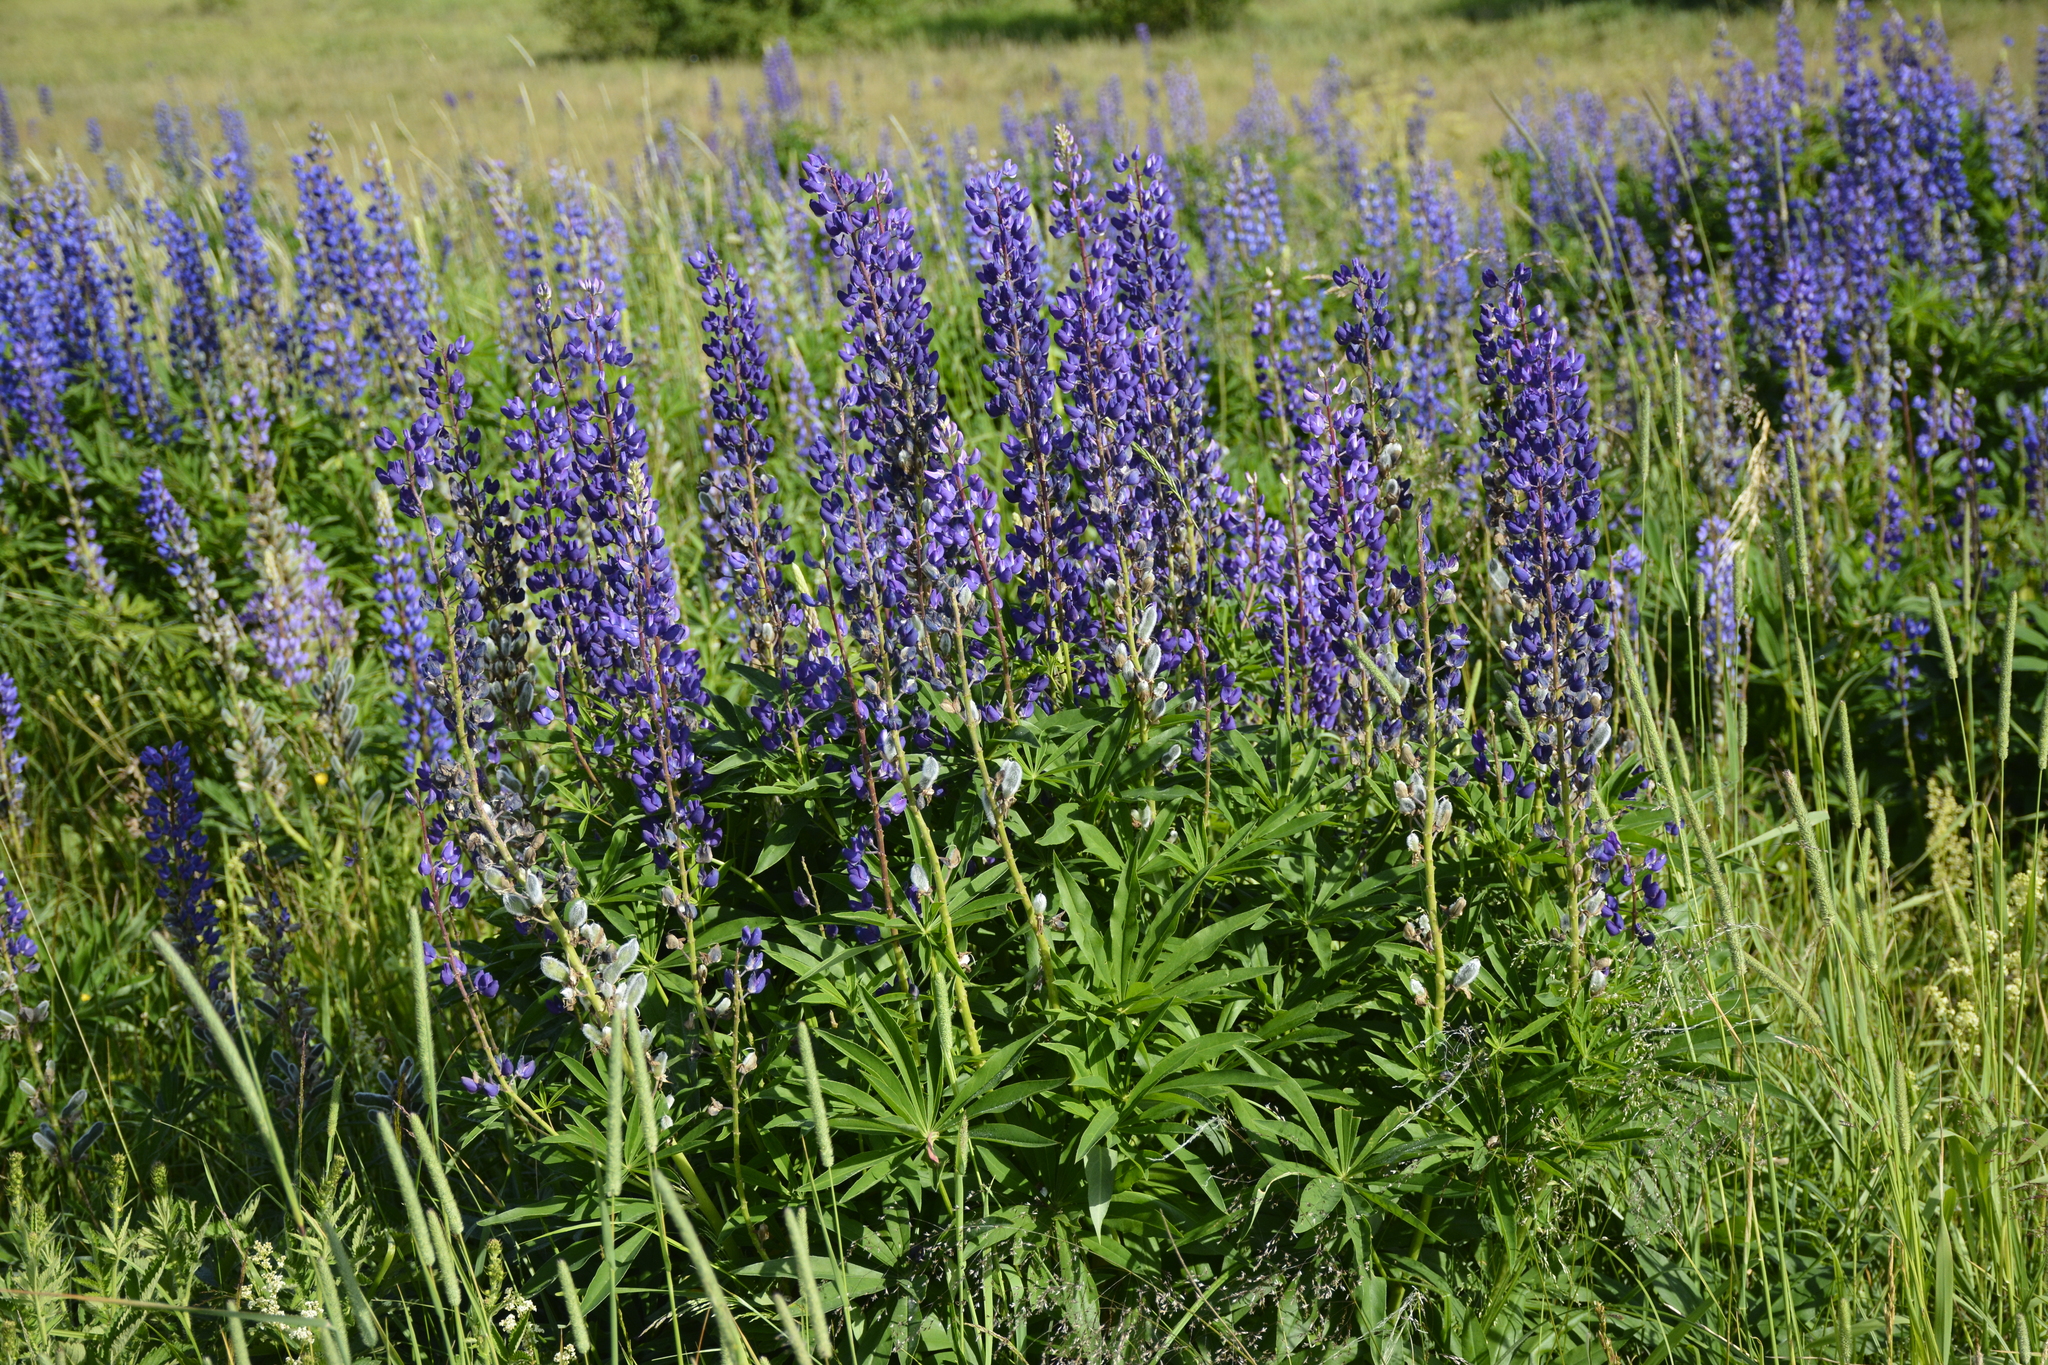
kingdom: Plantae
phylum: Tracheophyta
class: Magnoliopsida
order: Fabales
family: Fabaceae
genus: Lupinus
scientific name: Lupinus polyphyllus
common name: Garden lupin
